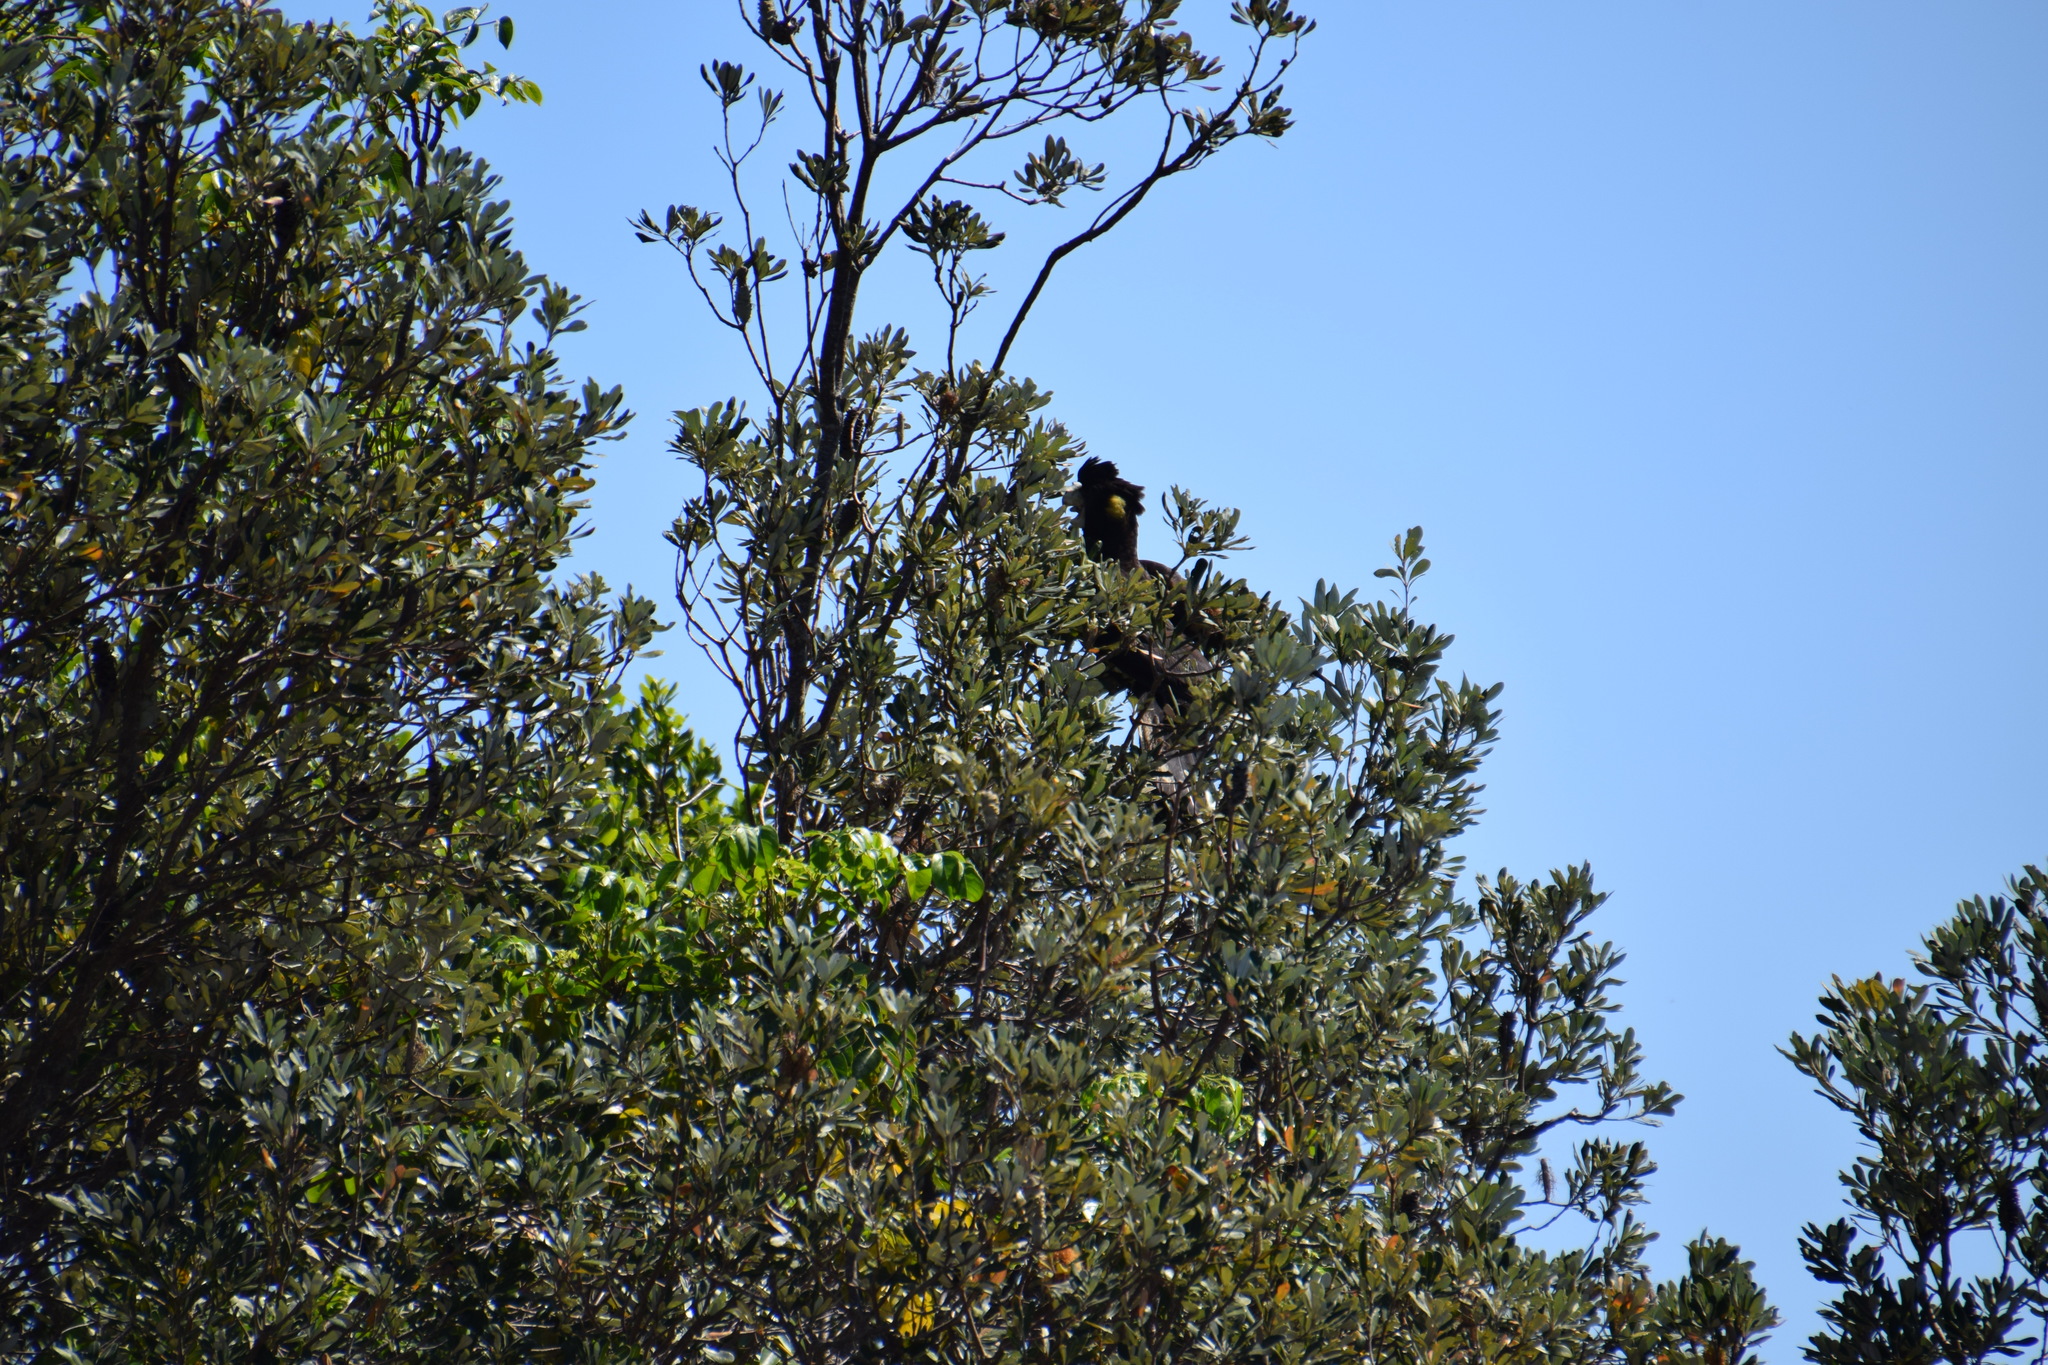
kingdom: Animalia
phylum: Chordata
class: Aves
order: Psittaciformes
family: Cacatuidae
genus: Zanda
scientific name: Zanda funerea
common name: Yellow-tailed black-cockatoo
